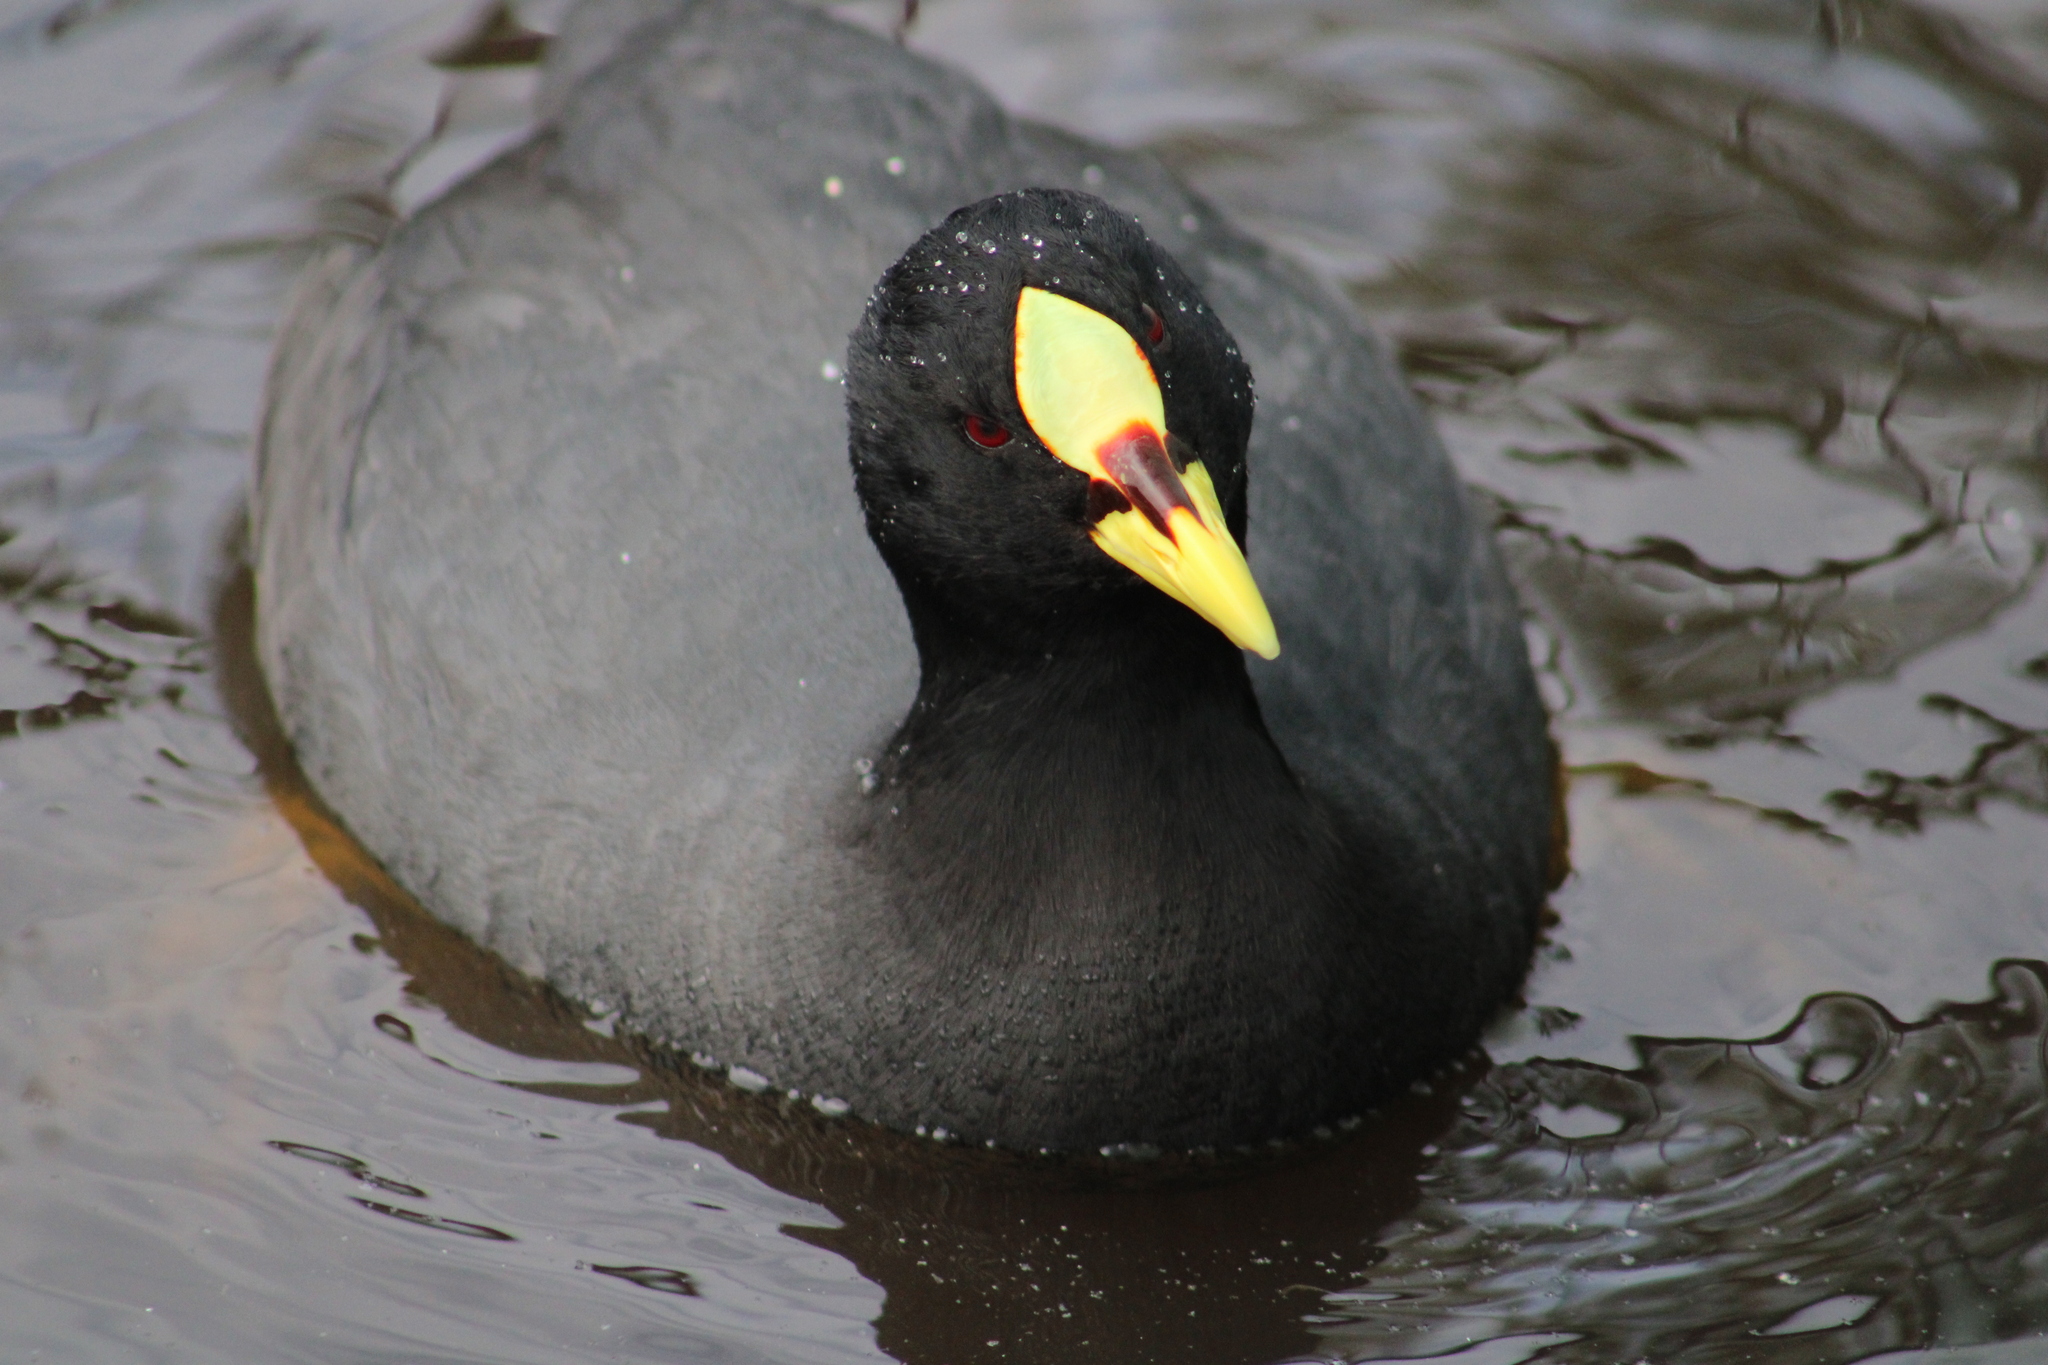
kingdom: Animalia
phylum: Chordata
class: Aves
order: Gruiformes
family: Rallidae
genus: Fulica
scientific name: Fulica armillata
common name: Red-gartered coot
